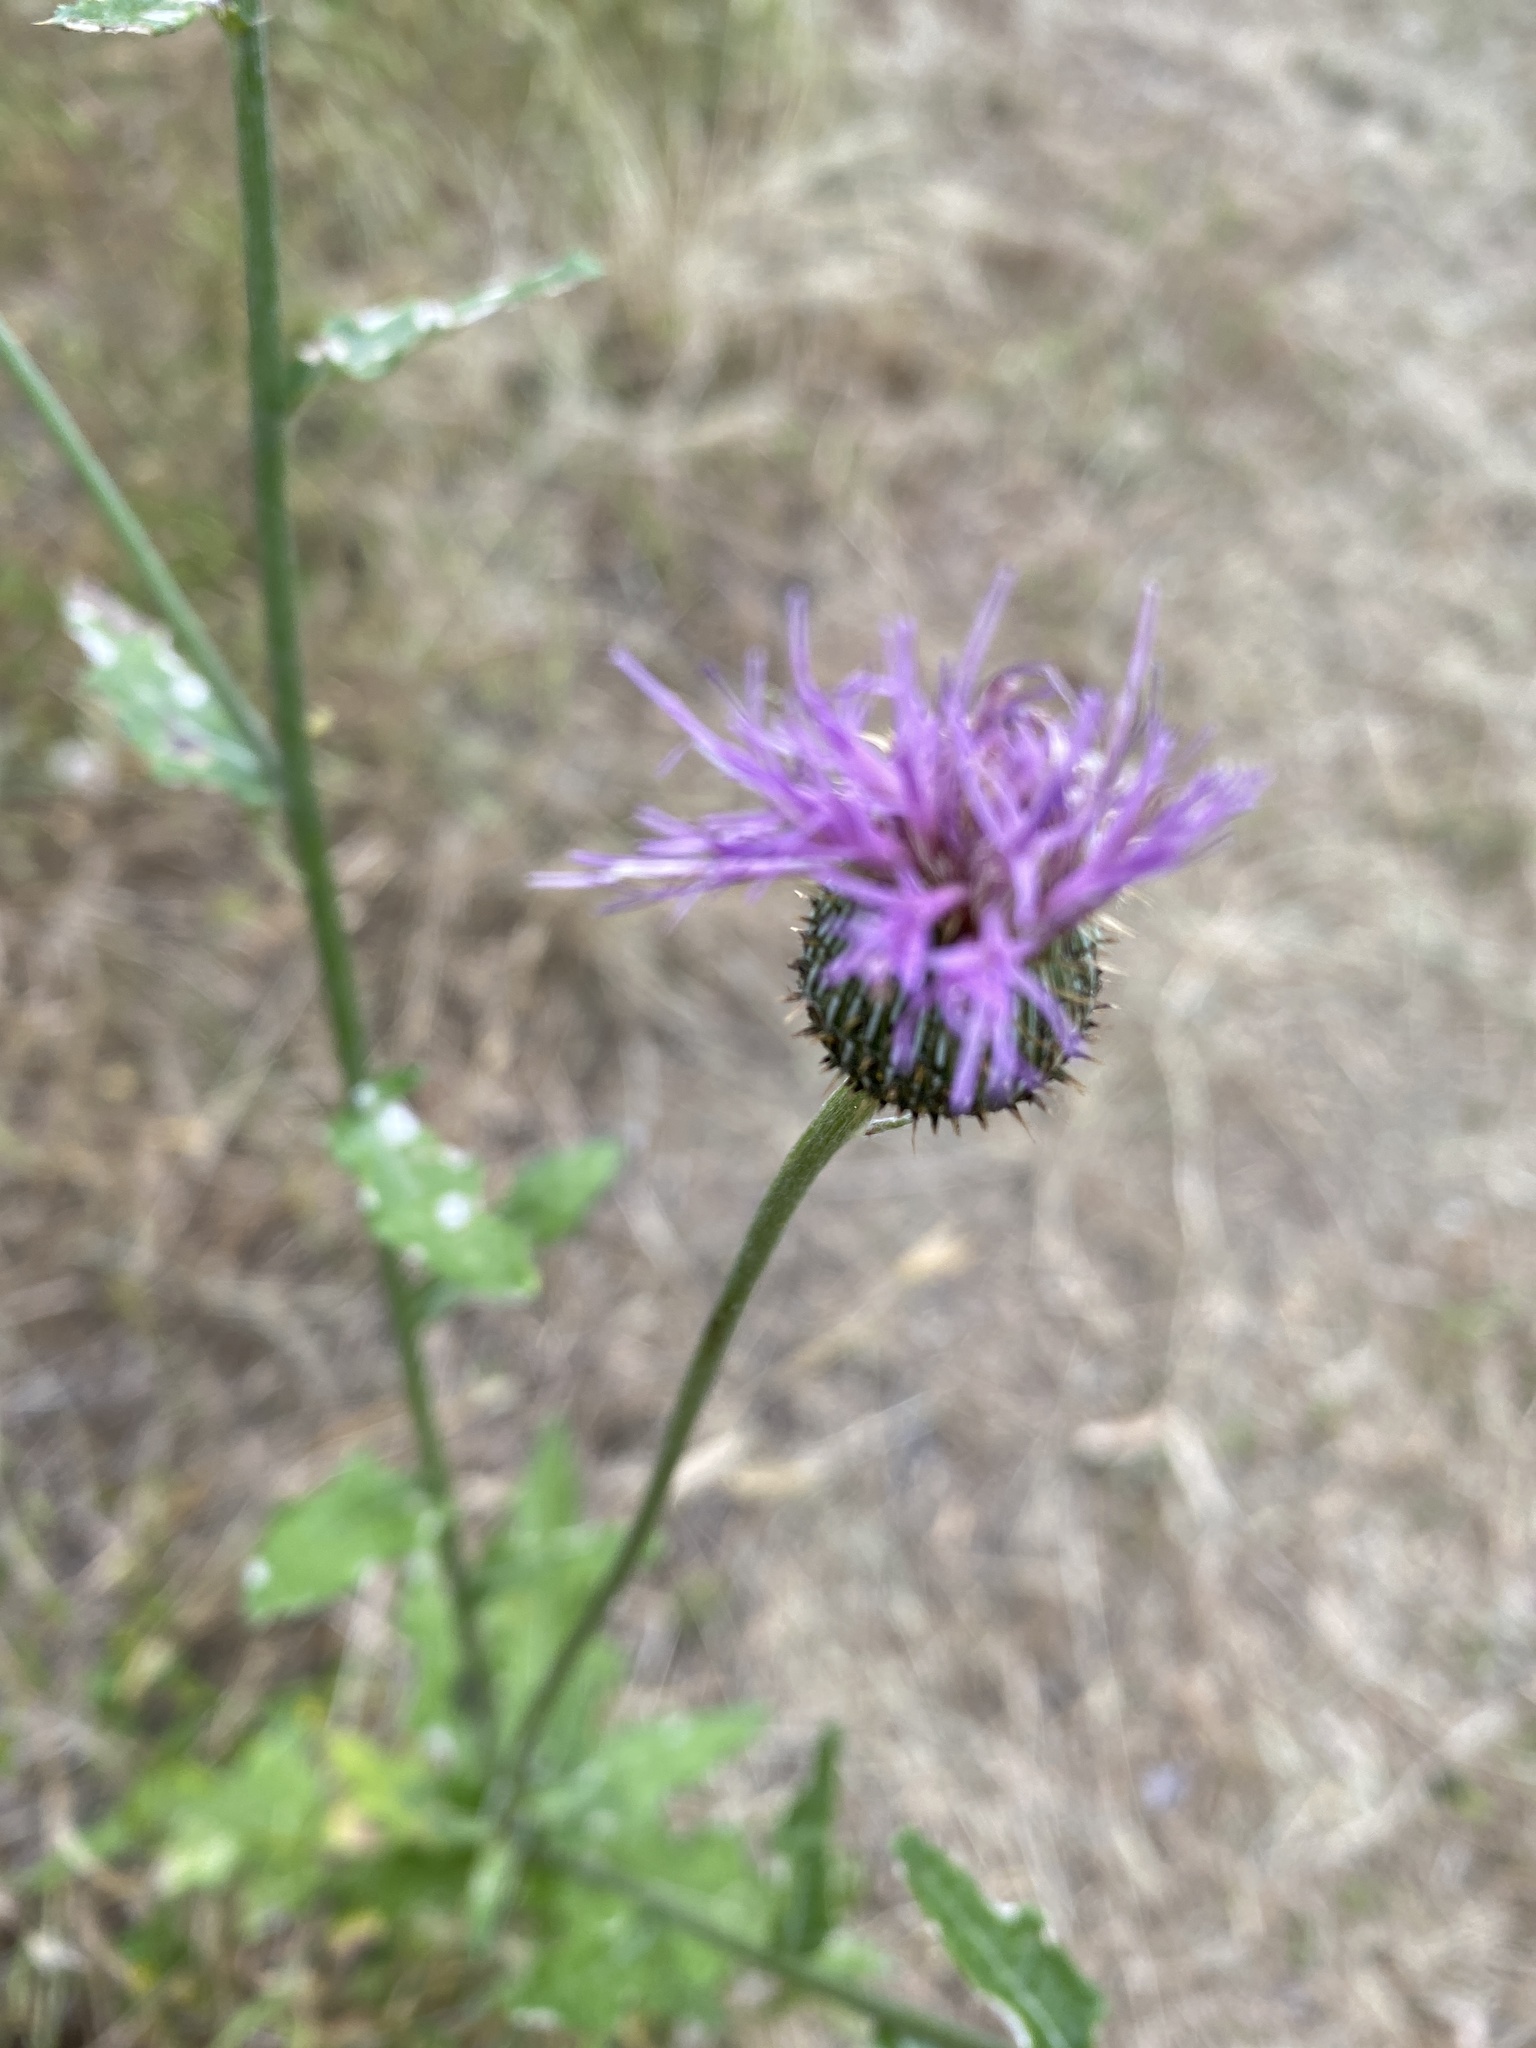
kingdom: Plantae
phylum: Tracheophyta
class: Magnoliopsida
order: Asterales
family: Asteraceae
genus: Cirsium
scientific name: Cirsium texanum
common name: Texas purple thistle
